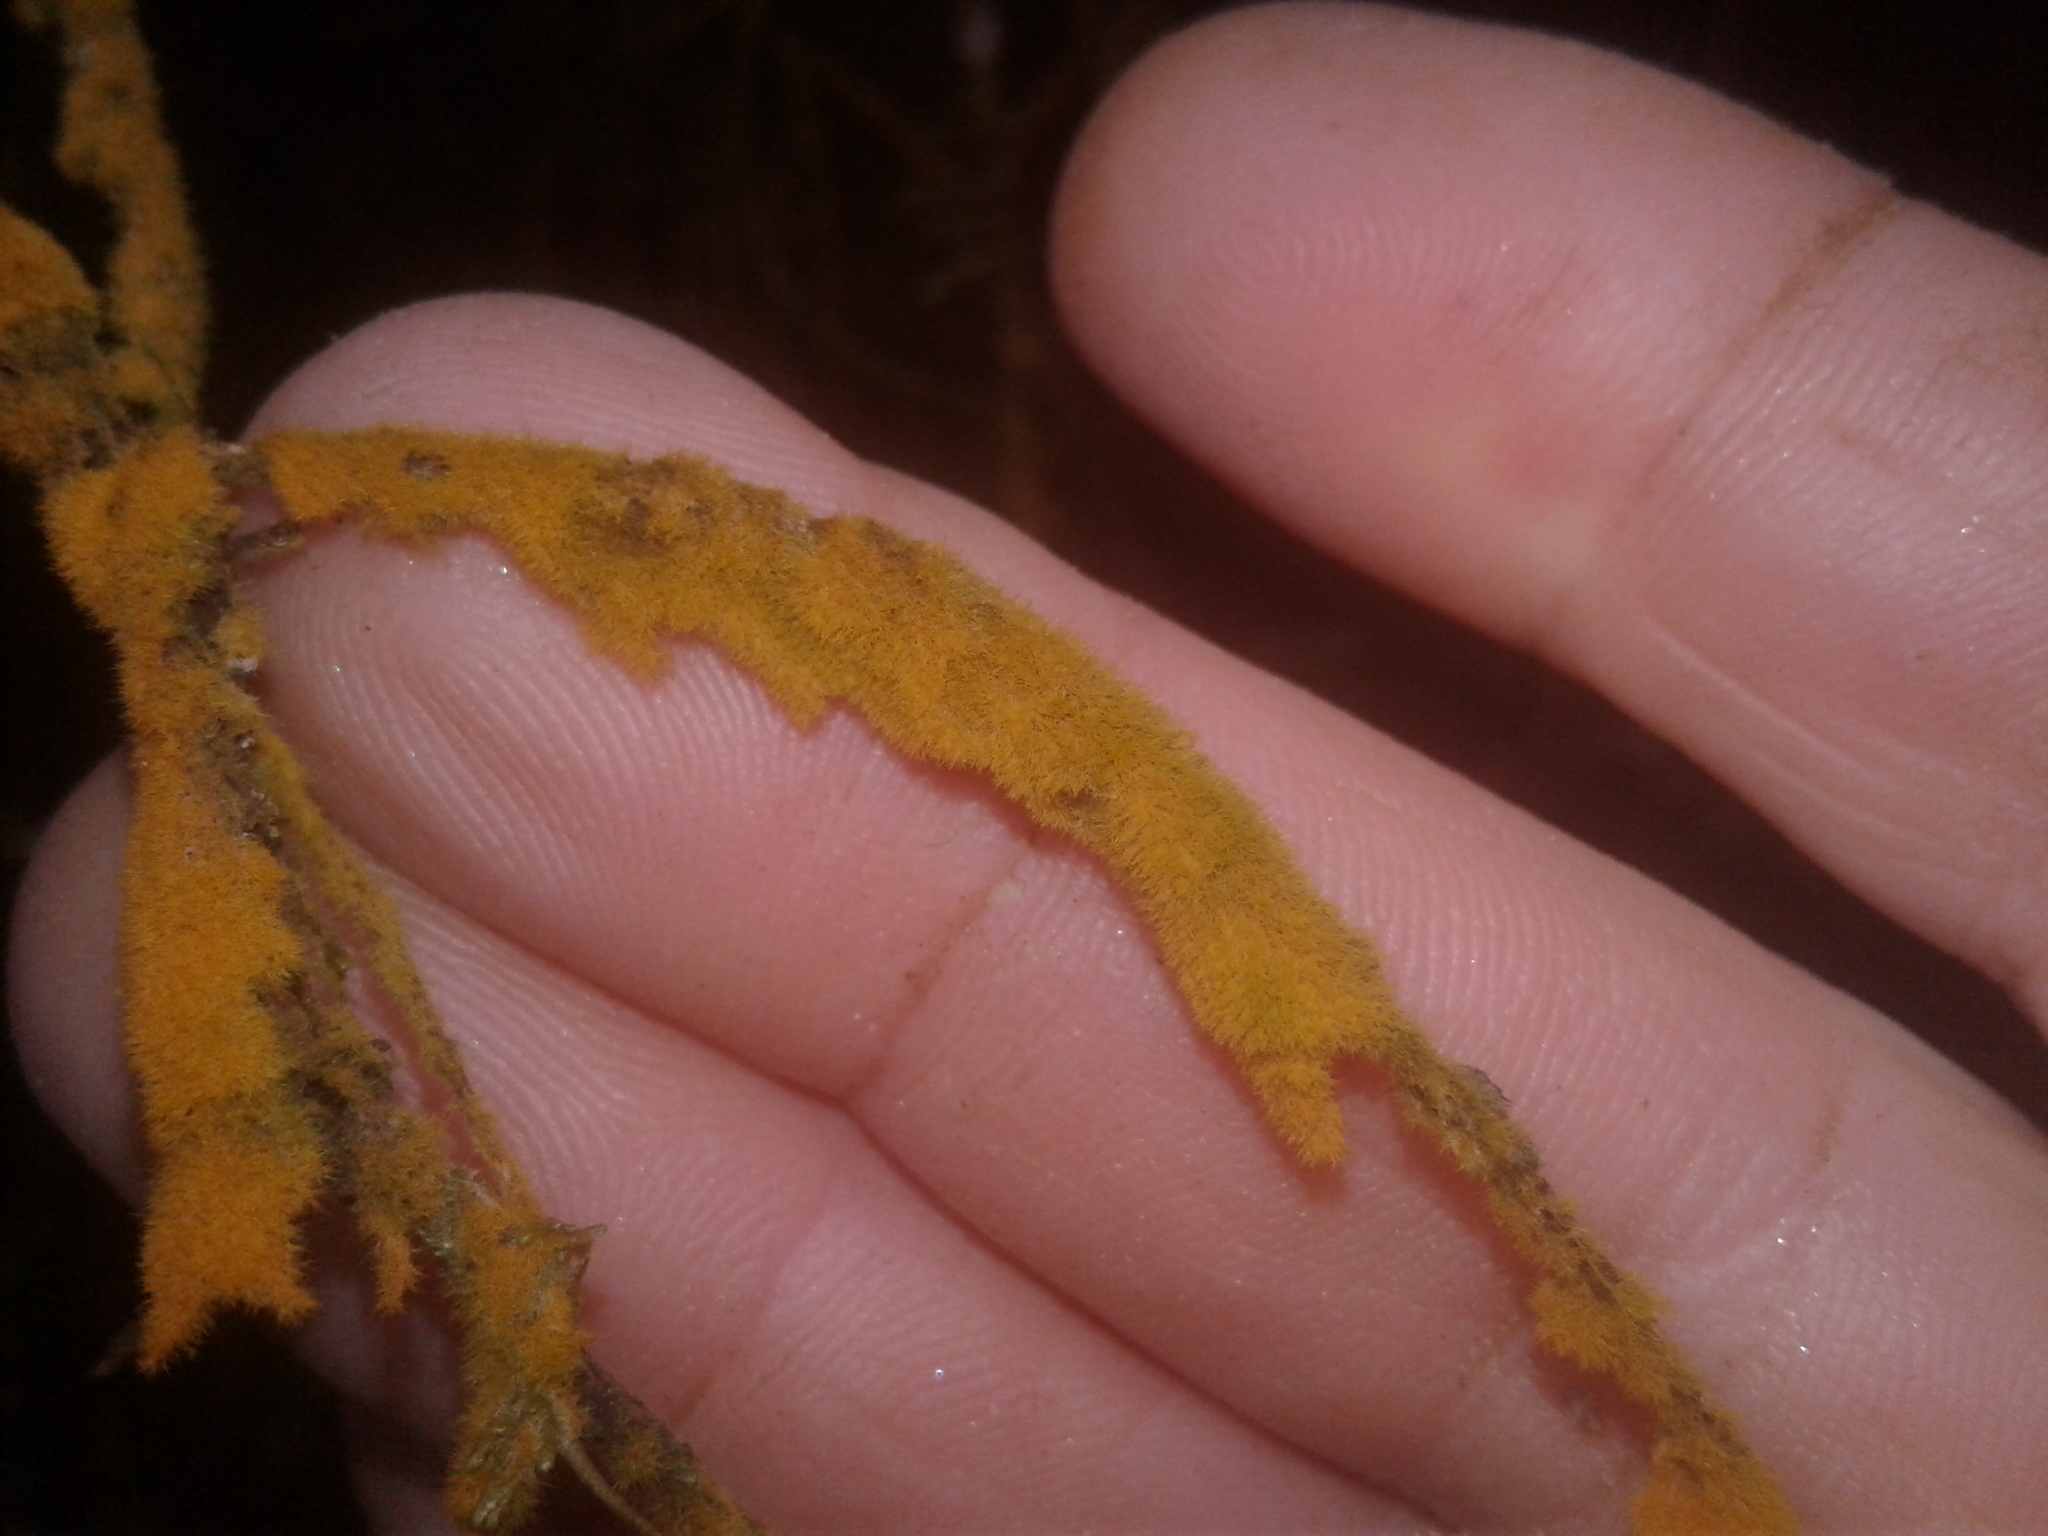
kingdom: Plantae
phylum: Chlorophyta
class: Ulvophyceae
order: Trentepohliales
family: Trentepohliaceae
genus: Trentepohlia
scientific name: Trentepohlia
